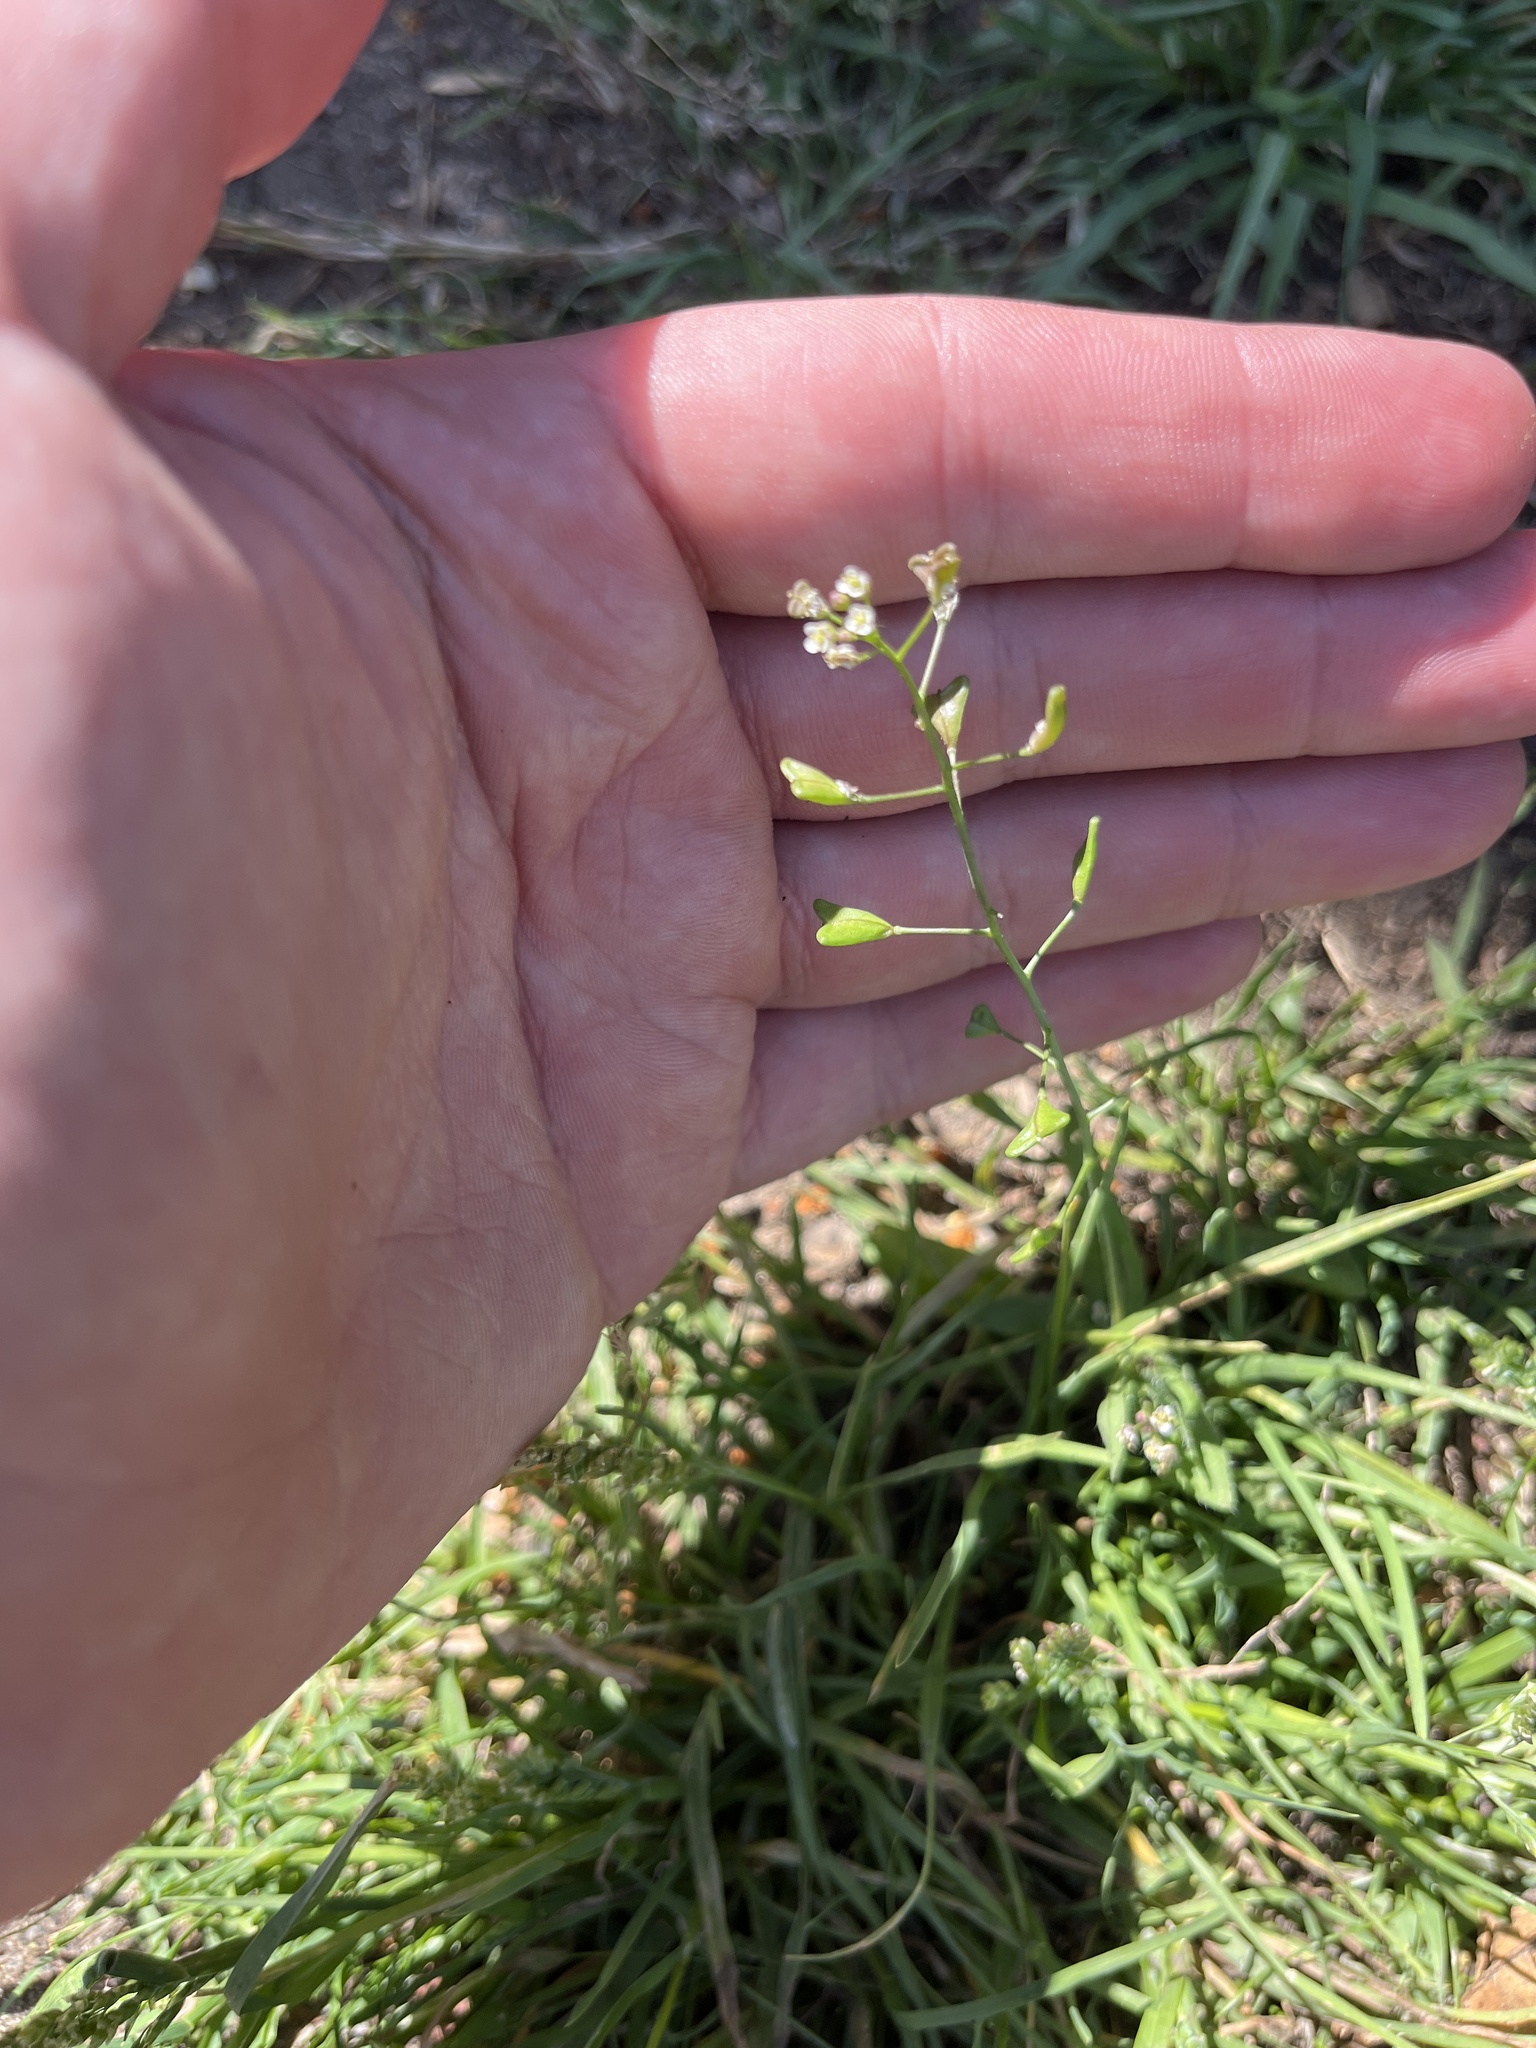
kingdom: Plantae
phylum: Tracheophyta
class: Magnoliopsida
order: Brassicales
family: Brassicaceae
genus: Capsella
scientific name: Capsella bursa-pastoris
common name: Shepherd's purse
